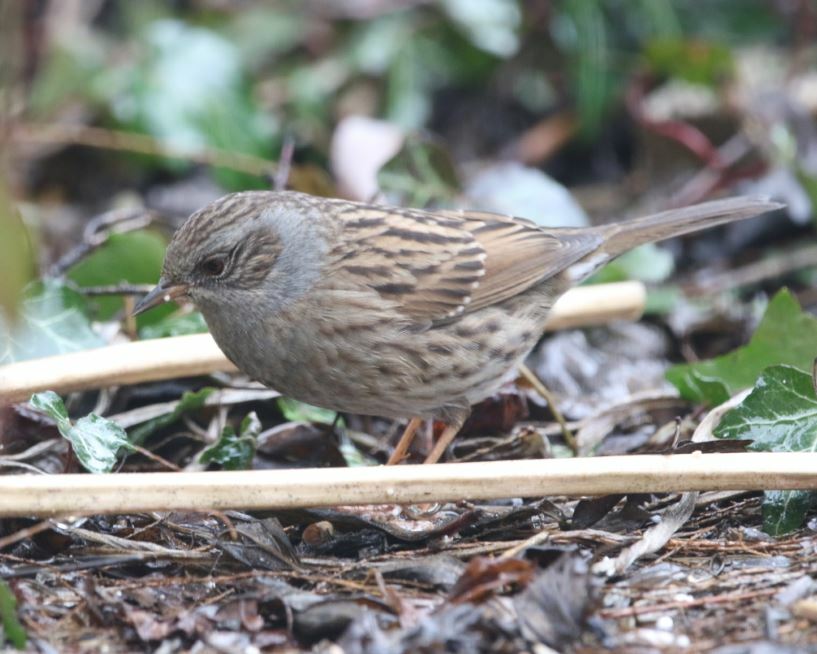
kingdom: Animalia
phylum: Chordata
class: Aves
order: Passeriformes
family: Prunellidae
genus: Prunella
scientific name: Prunella modularis
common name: Dunnock
